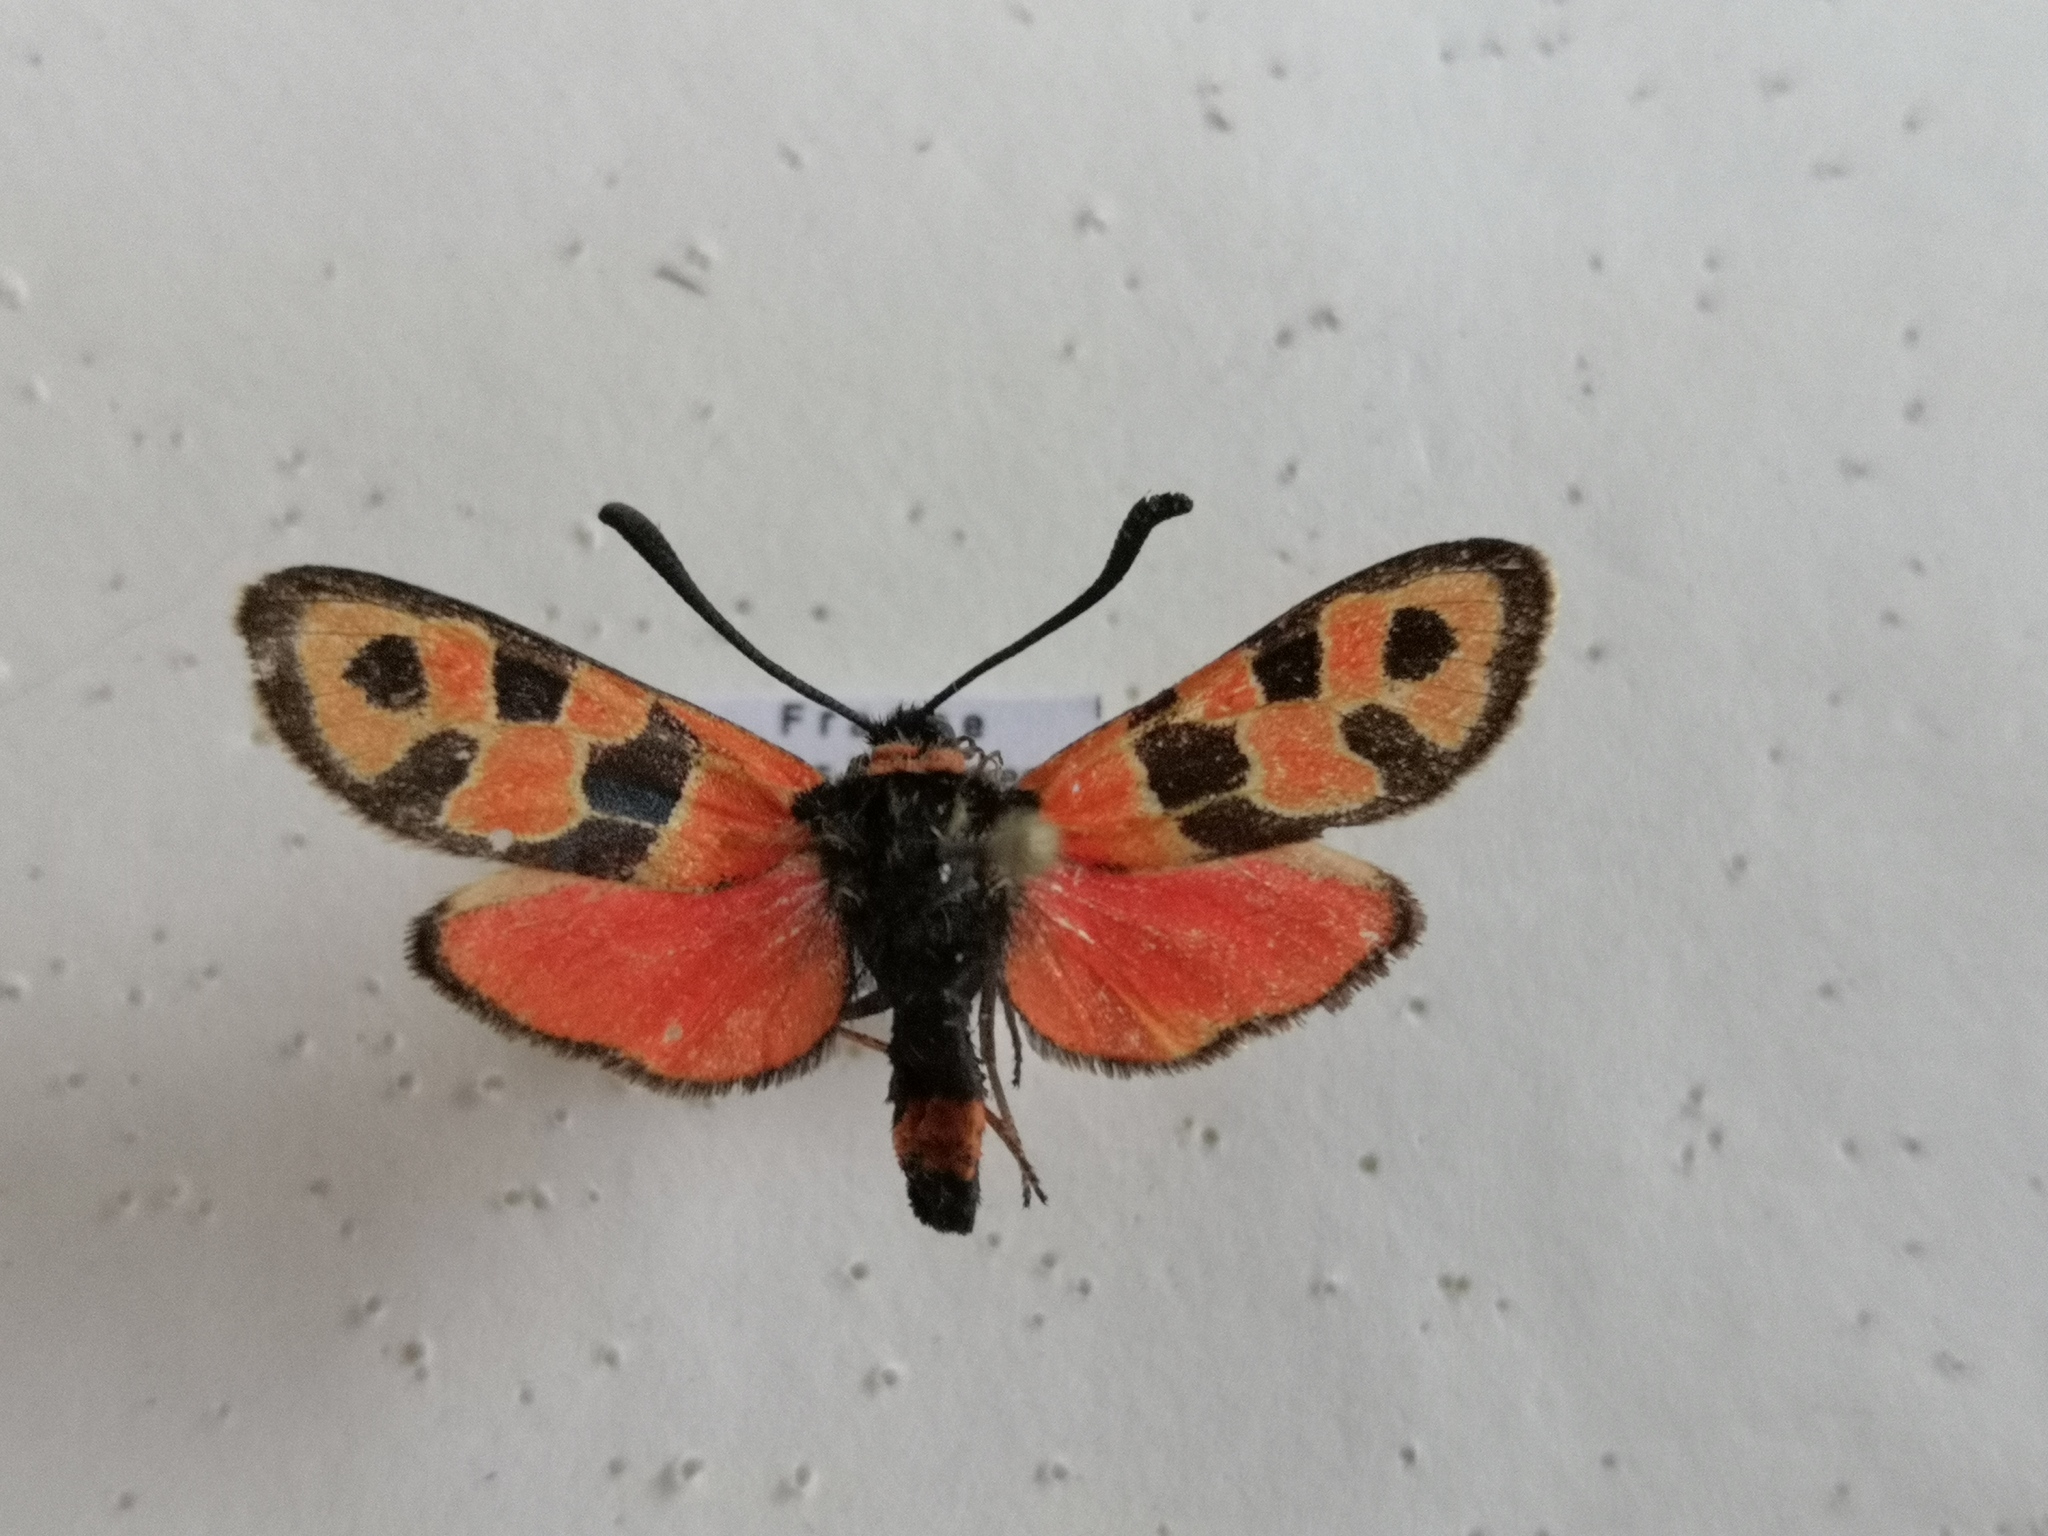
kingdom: Animalia
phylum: Arthropoda
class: Insecta
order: Lepidoptera
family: Zygaenidae
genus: Zygaena
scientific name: Zygaena fausta
